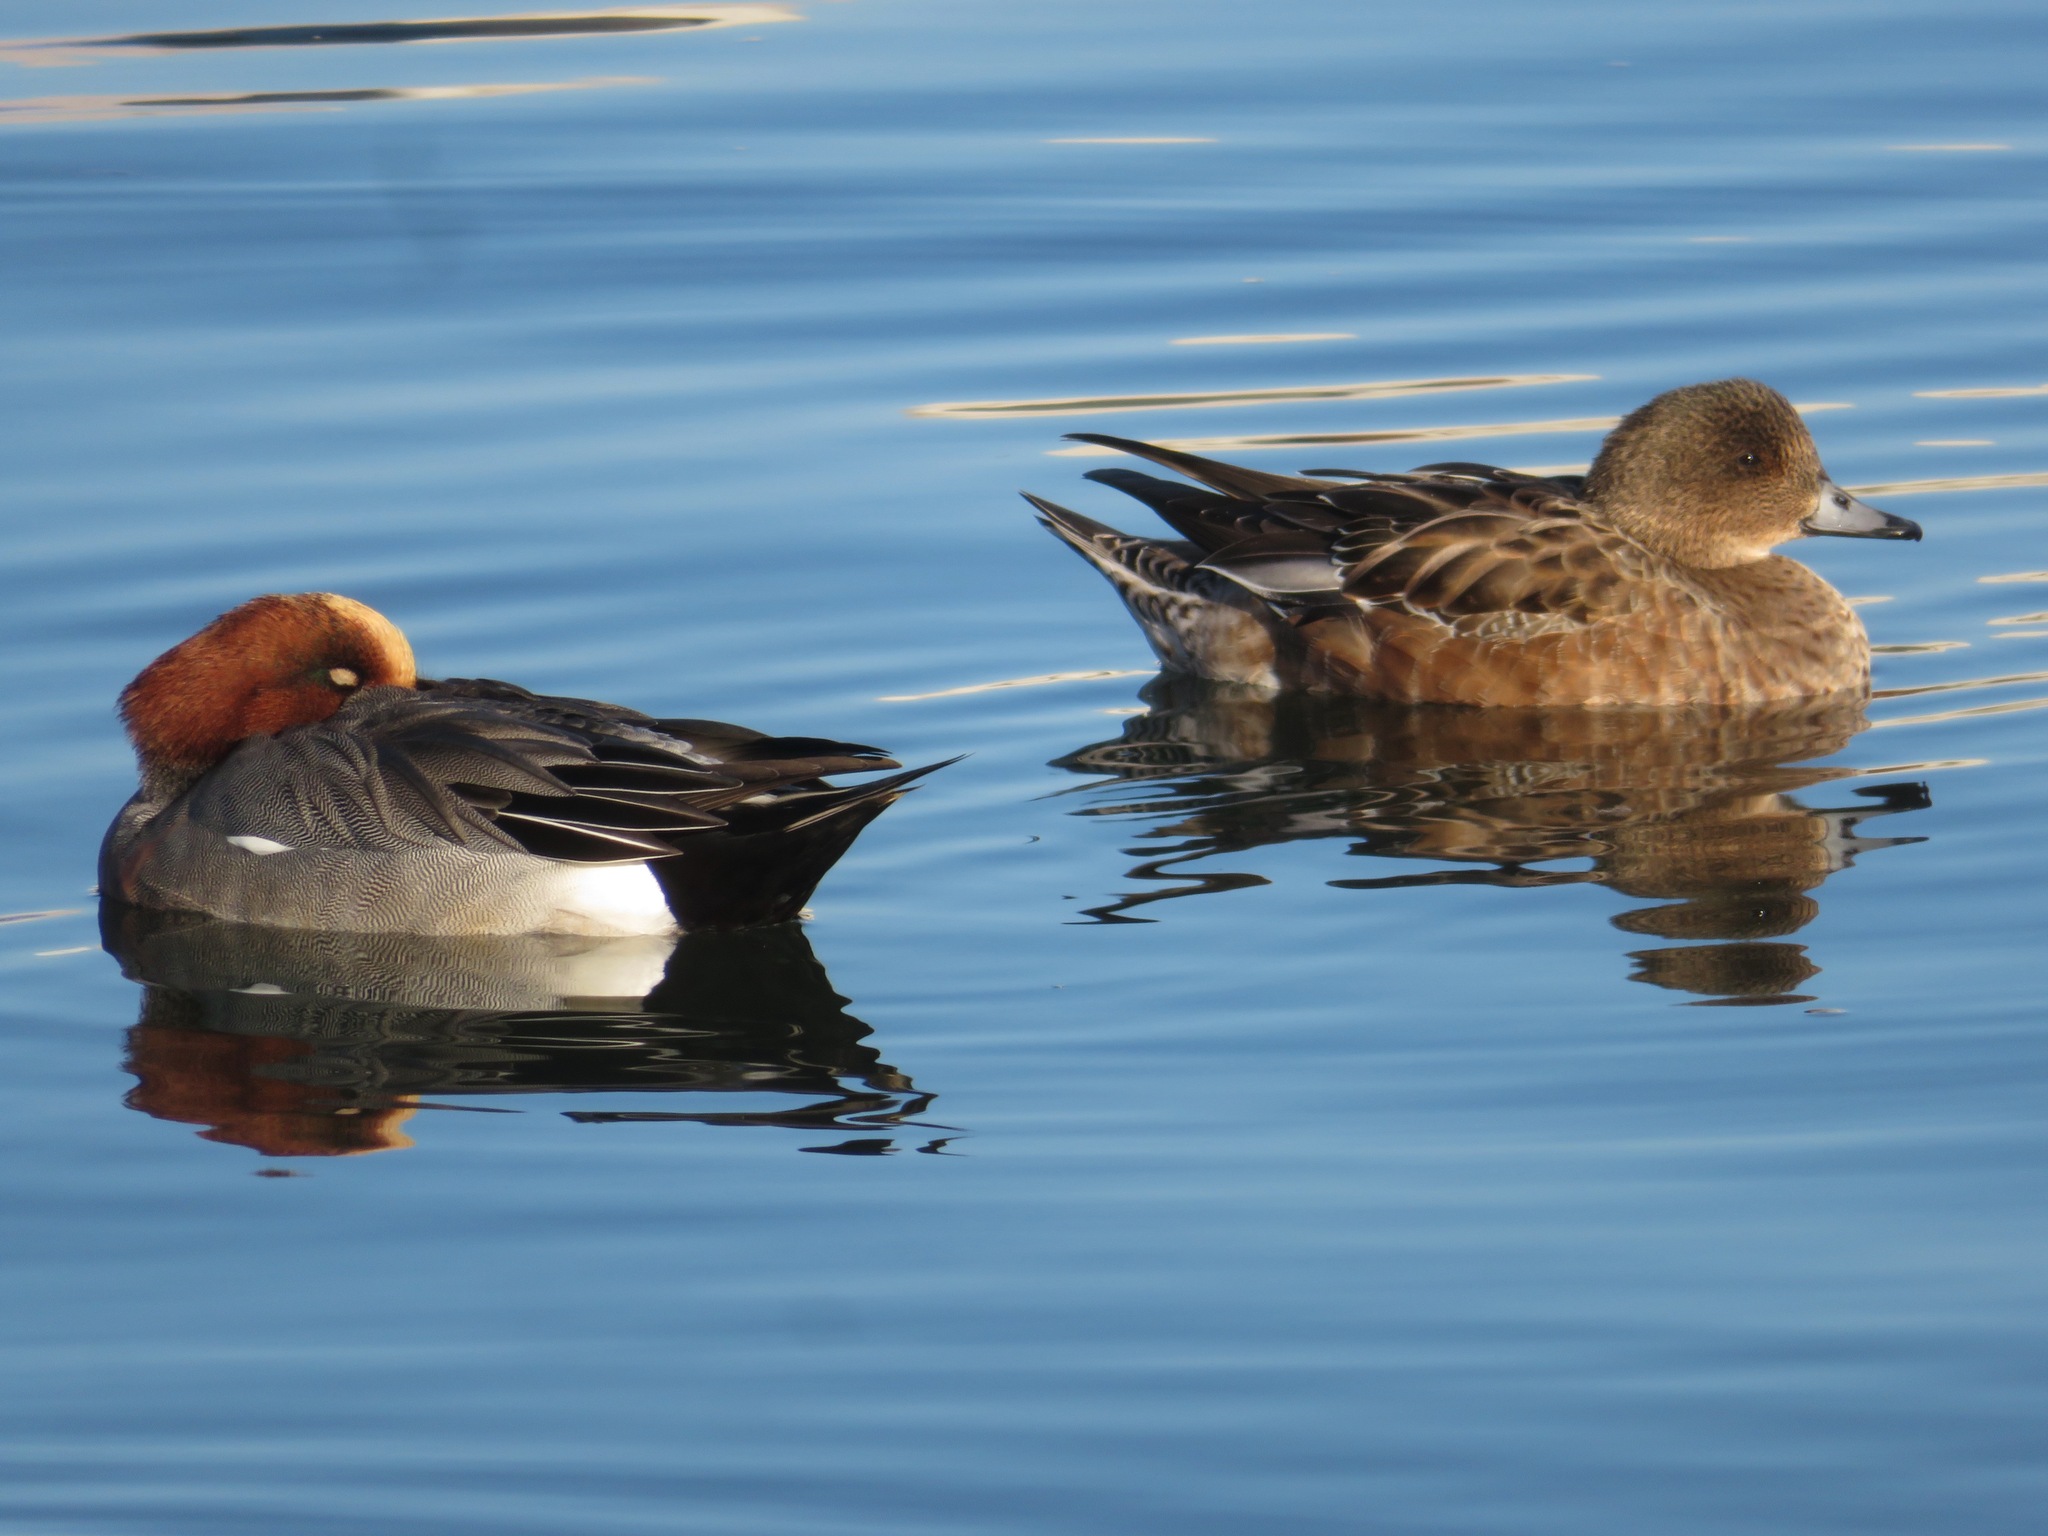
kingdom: Animalia
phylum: Chordata
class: Aves
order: Anseriformes
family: Anatidae
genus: Mareca
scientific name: Mareca penelope
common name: Eurasian wigeon
